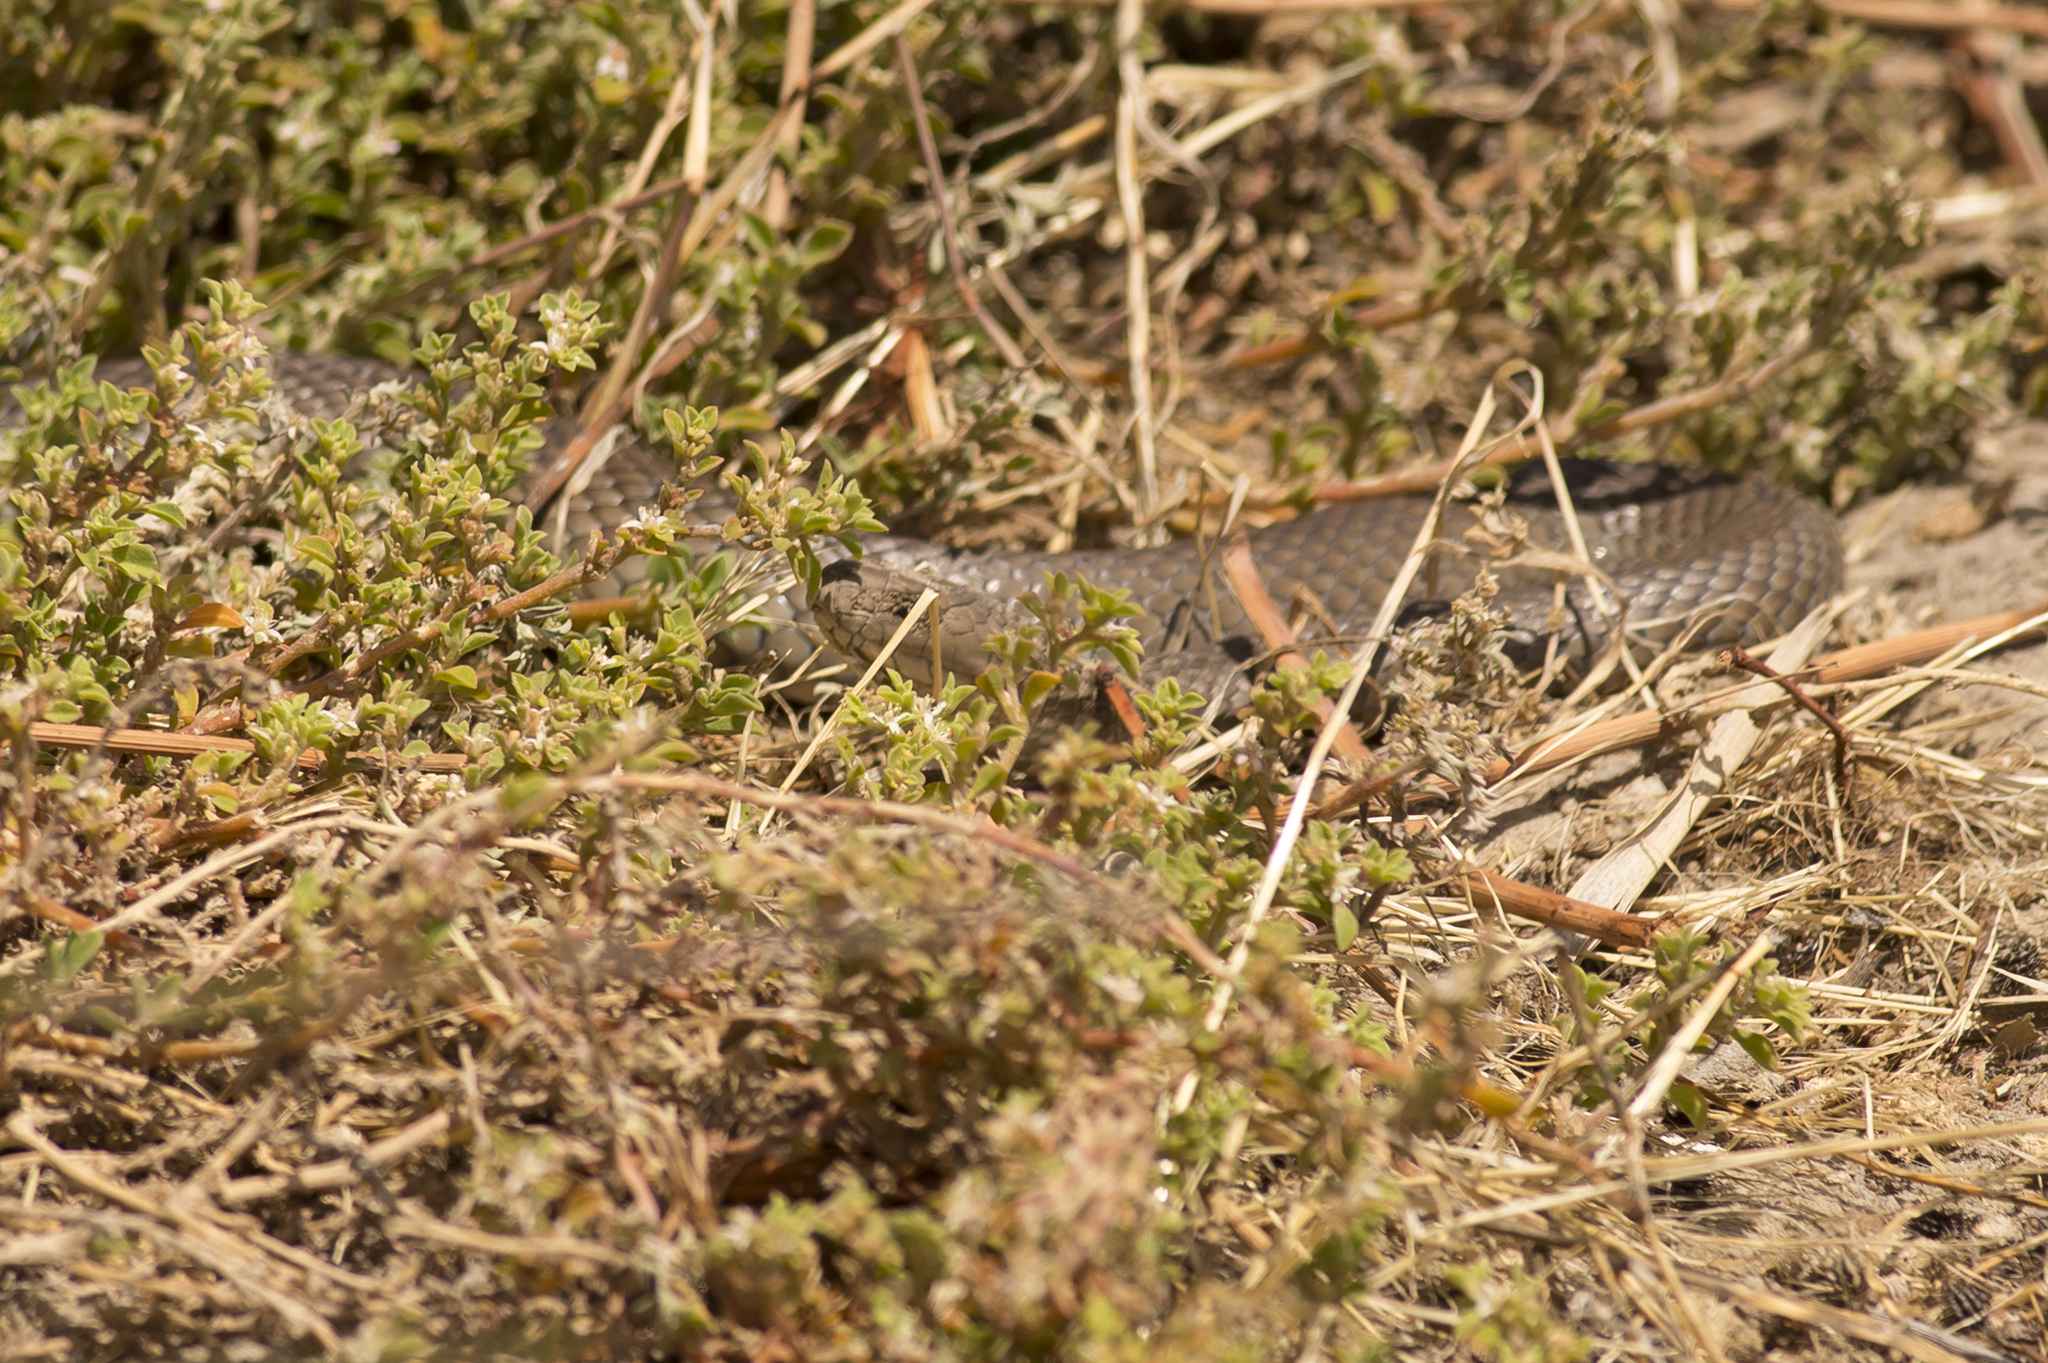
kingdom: Animalia
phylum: Chordata
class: Squamata
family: Elapidae
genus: Pseudonaja
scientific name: Pseudonaja textilis
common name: Eastern brown snake
